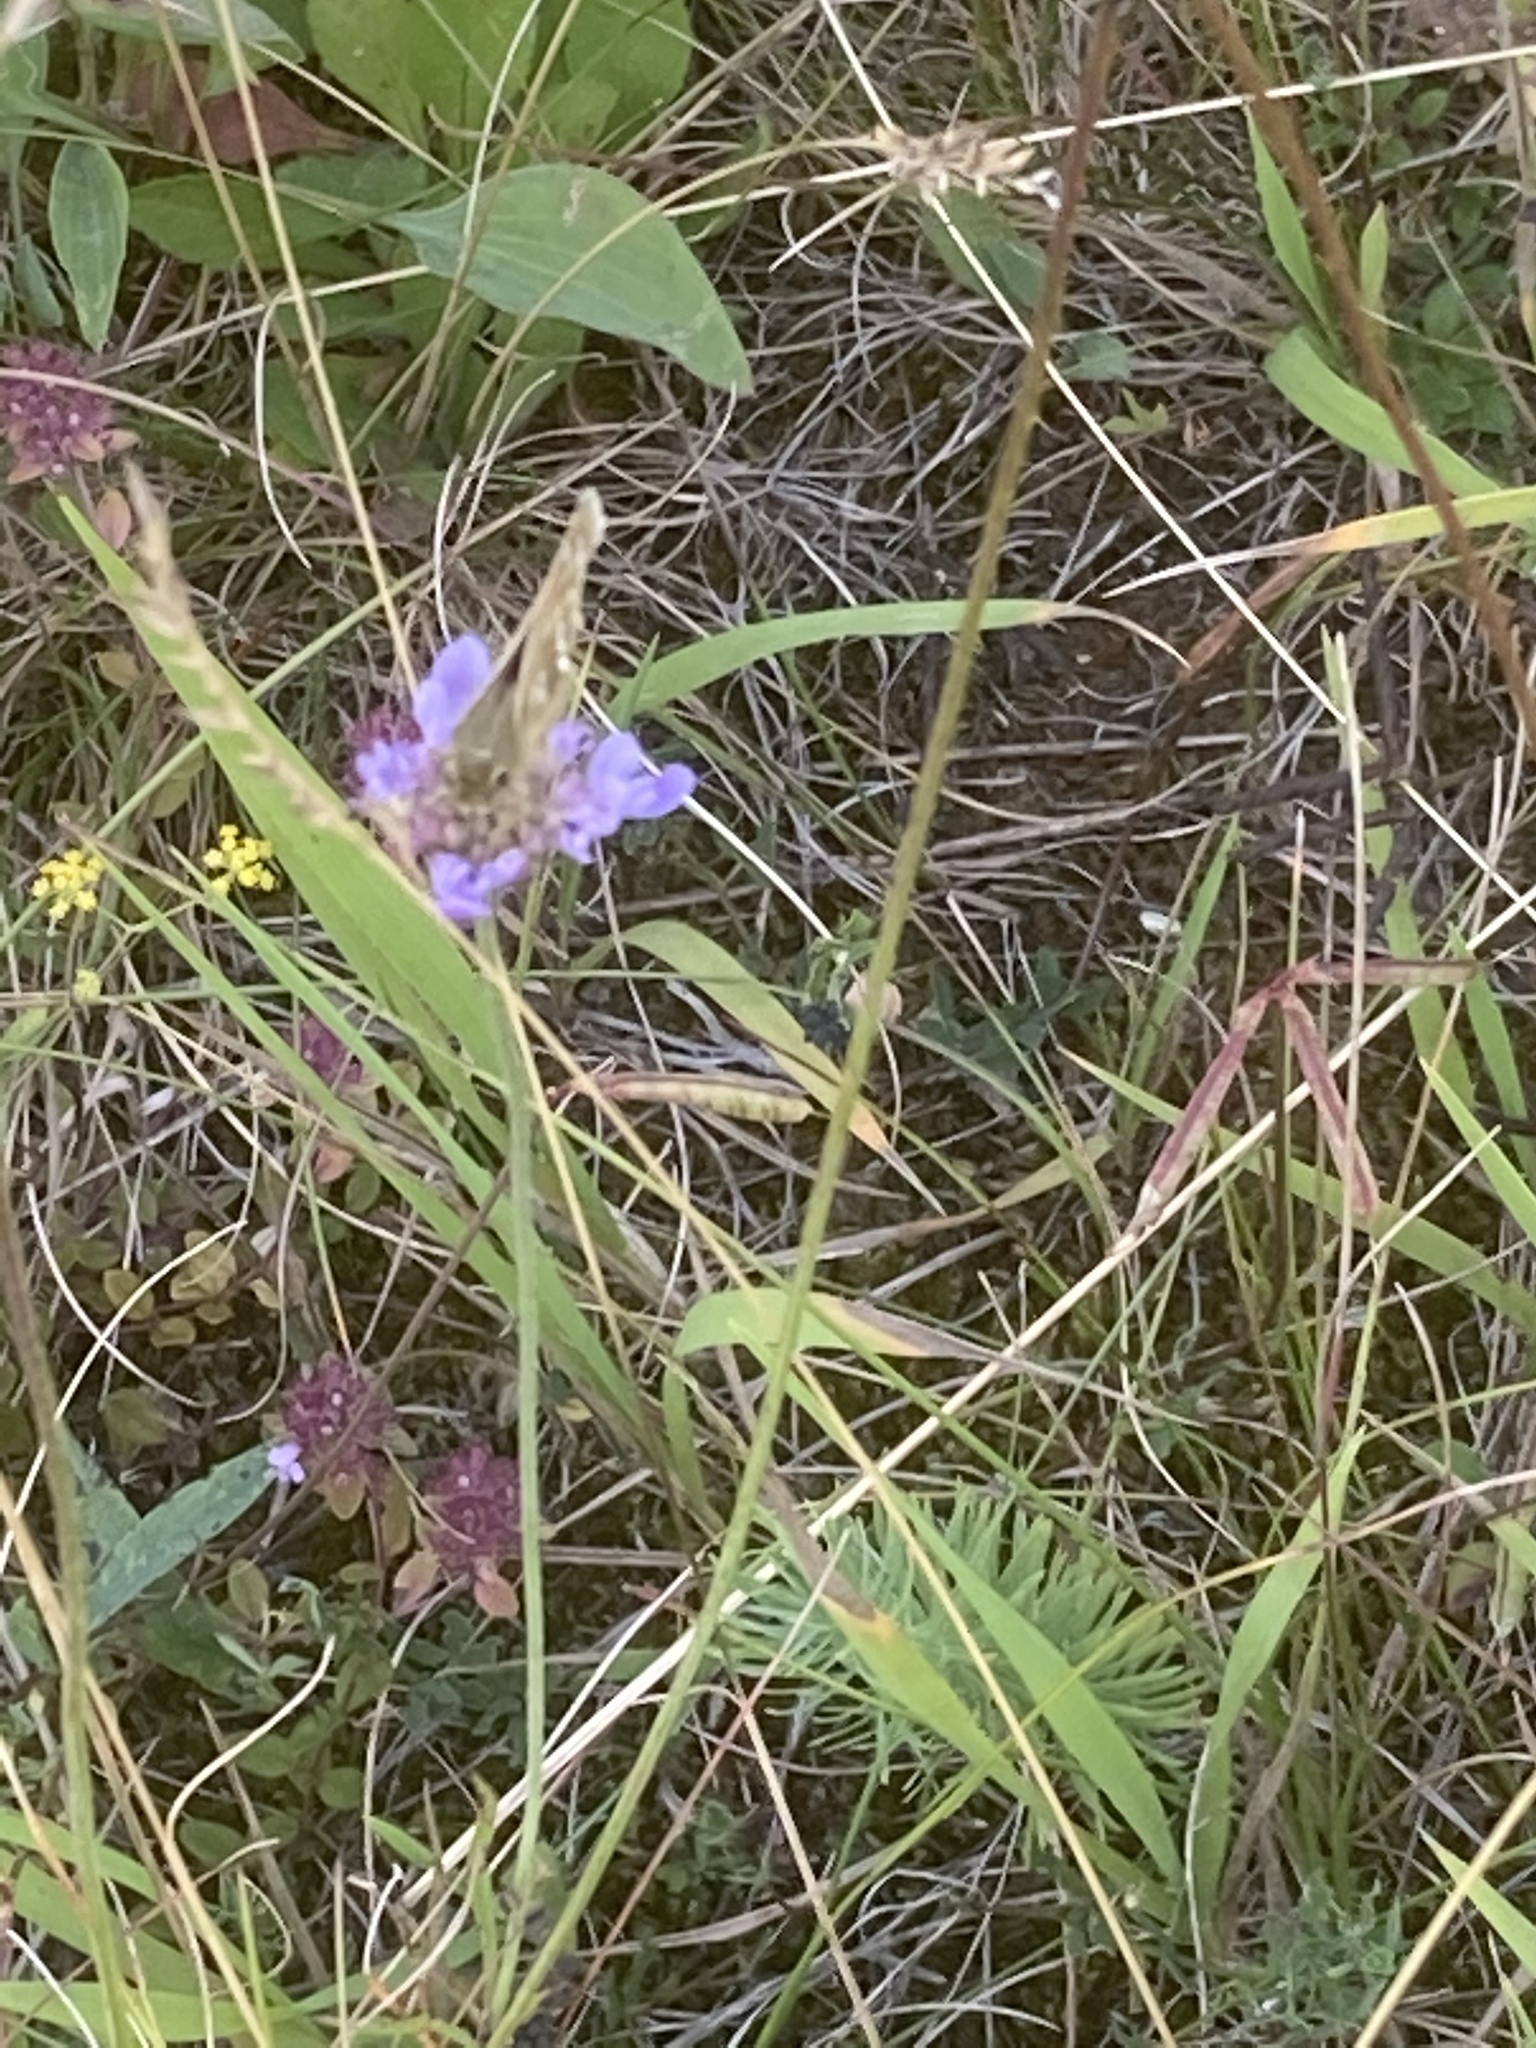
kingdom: Animalia
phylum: Arthropoda
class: Insecta
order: Lepidoptera
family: Hesperiidae
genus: Hesperia
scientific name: Hesperia comma
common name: Common branded skipper
